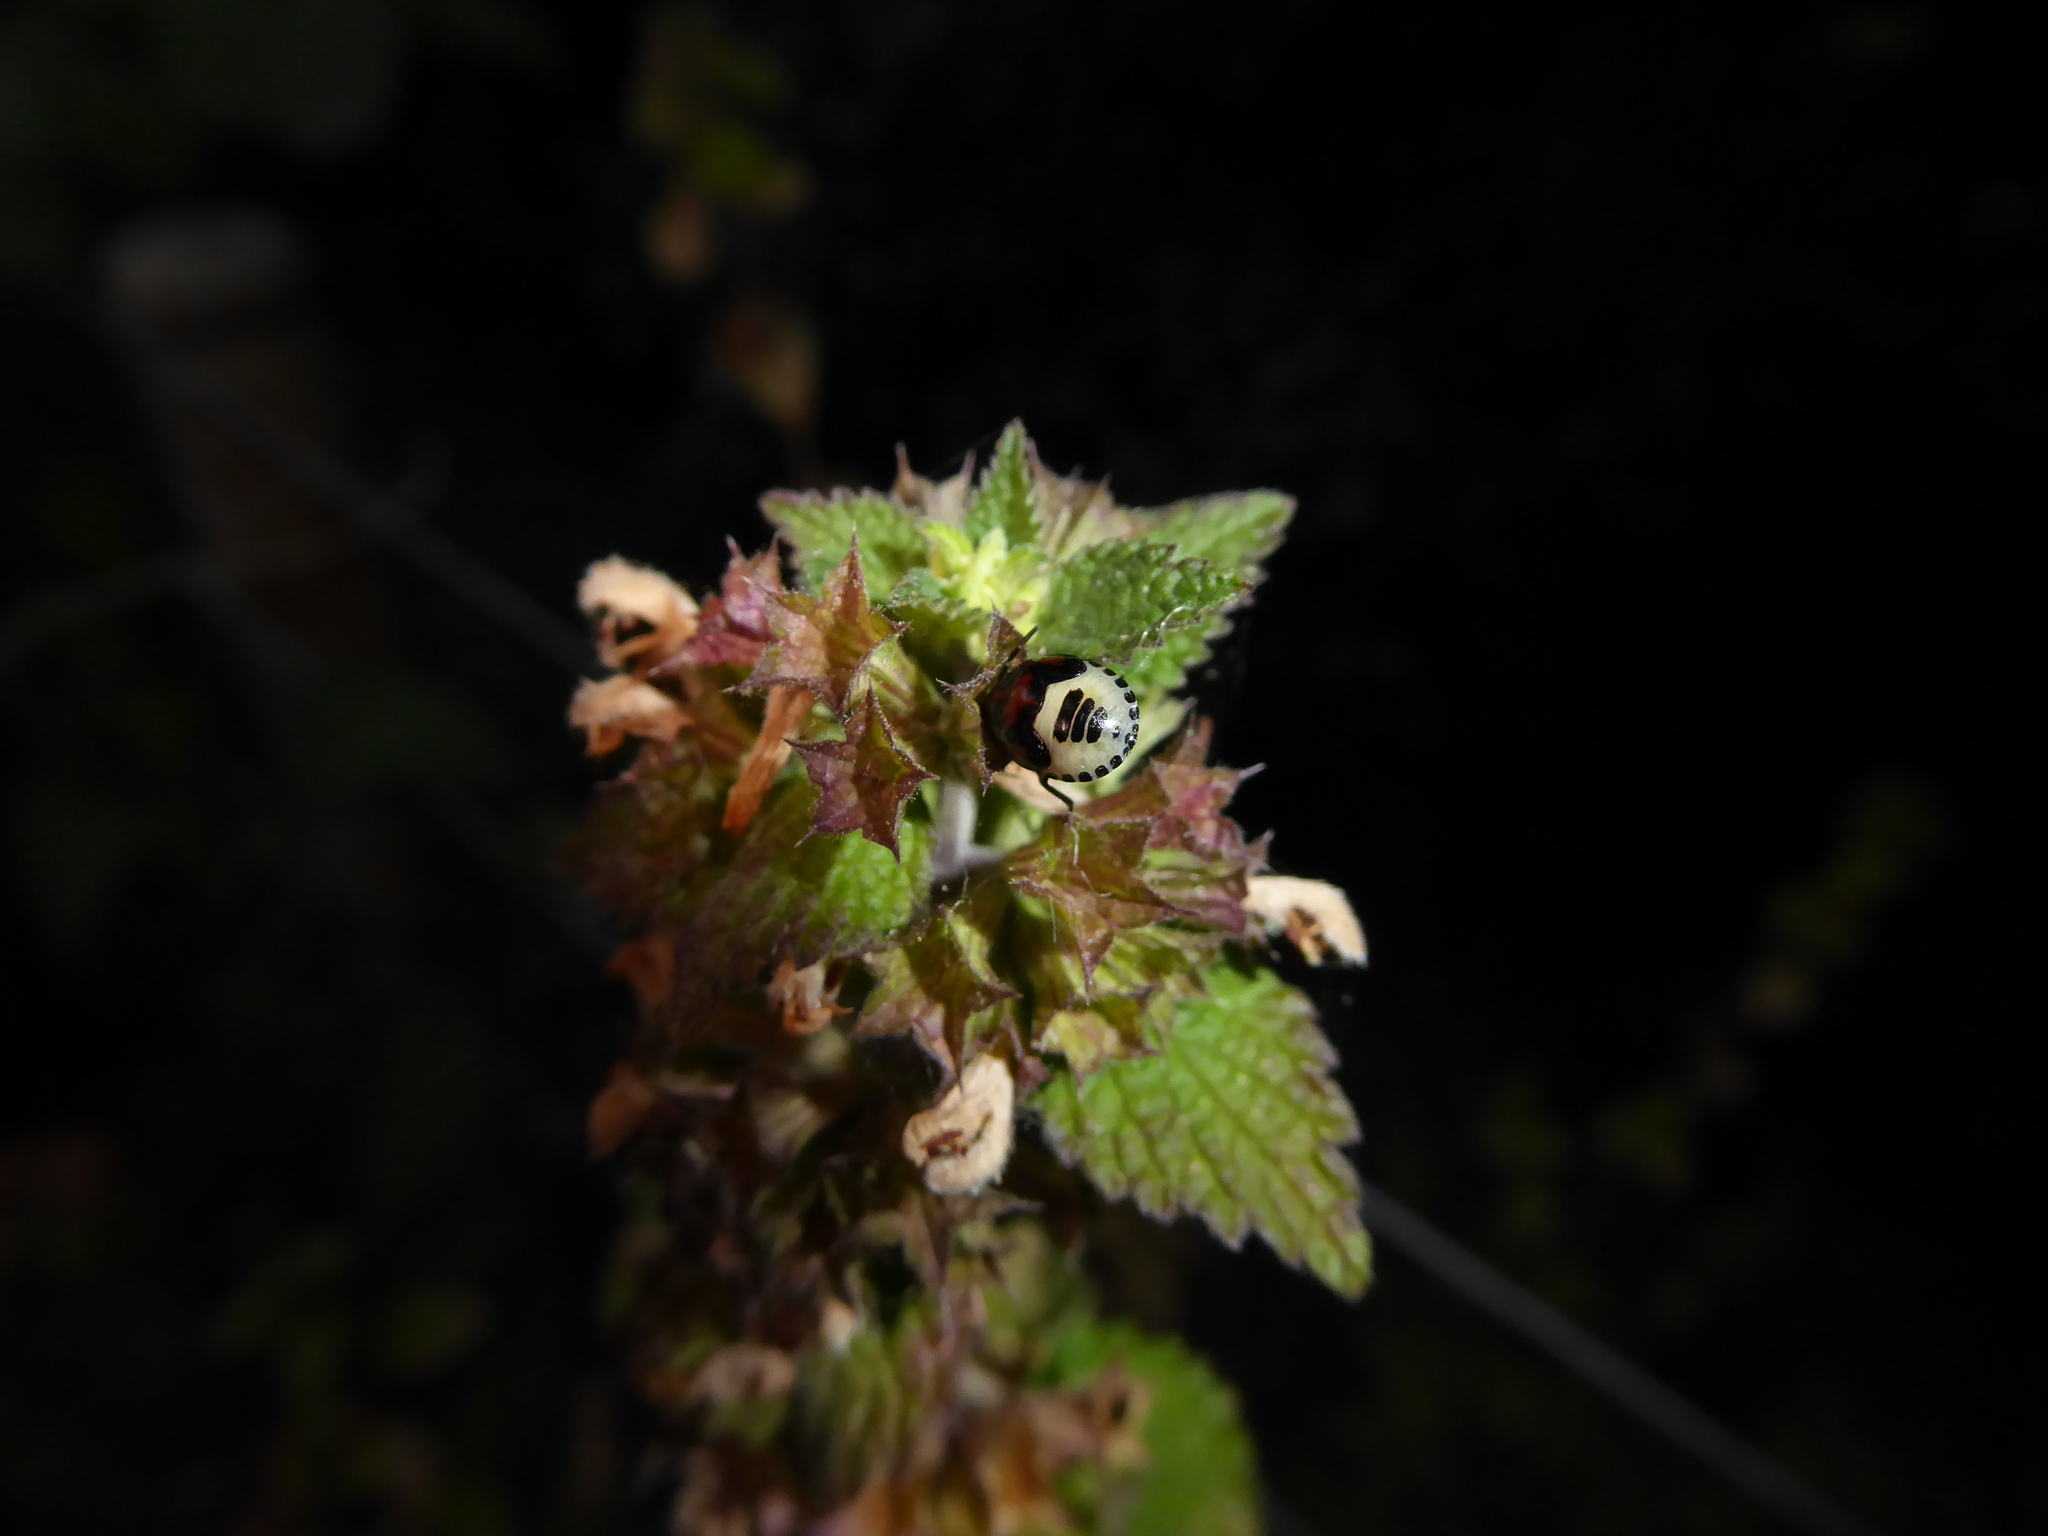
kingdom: Animalia
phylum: Arthropoda
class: Insecta
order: Hemiptera
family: Cydnidae
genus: Tritomegas
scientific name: Tritomegas sexmaculatus
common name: Rambur's pied shieldbug
